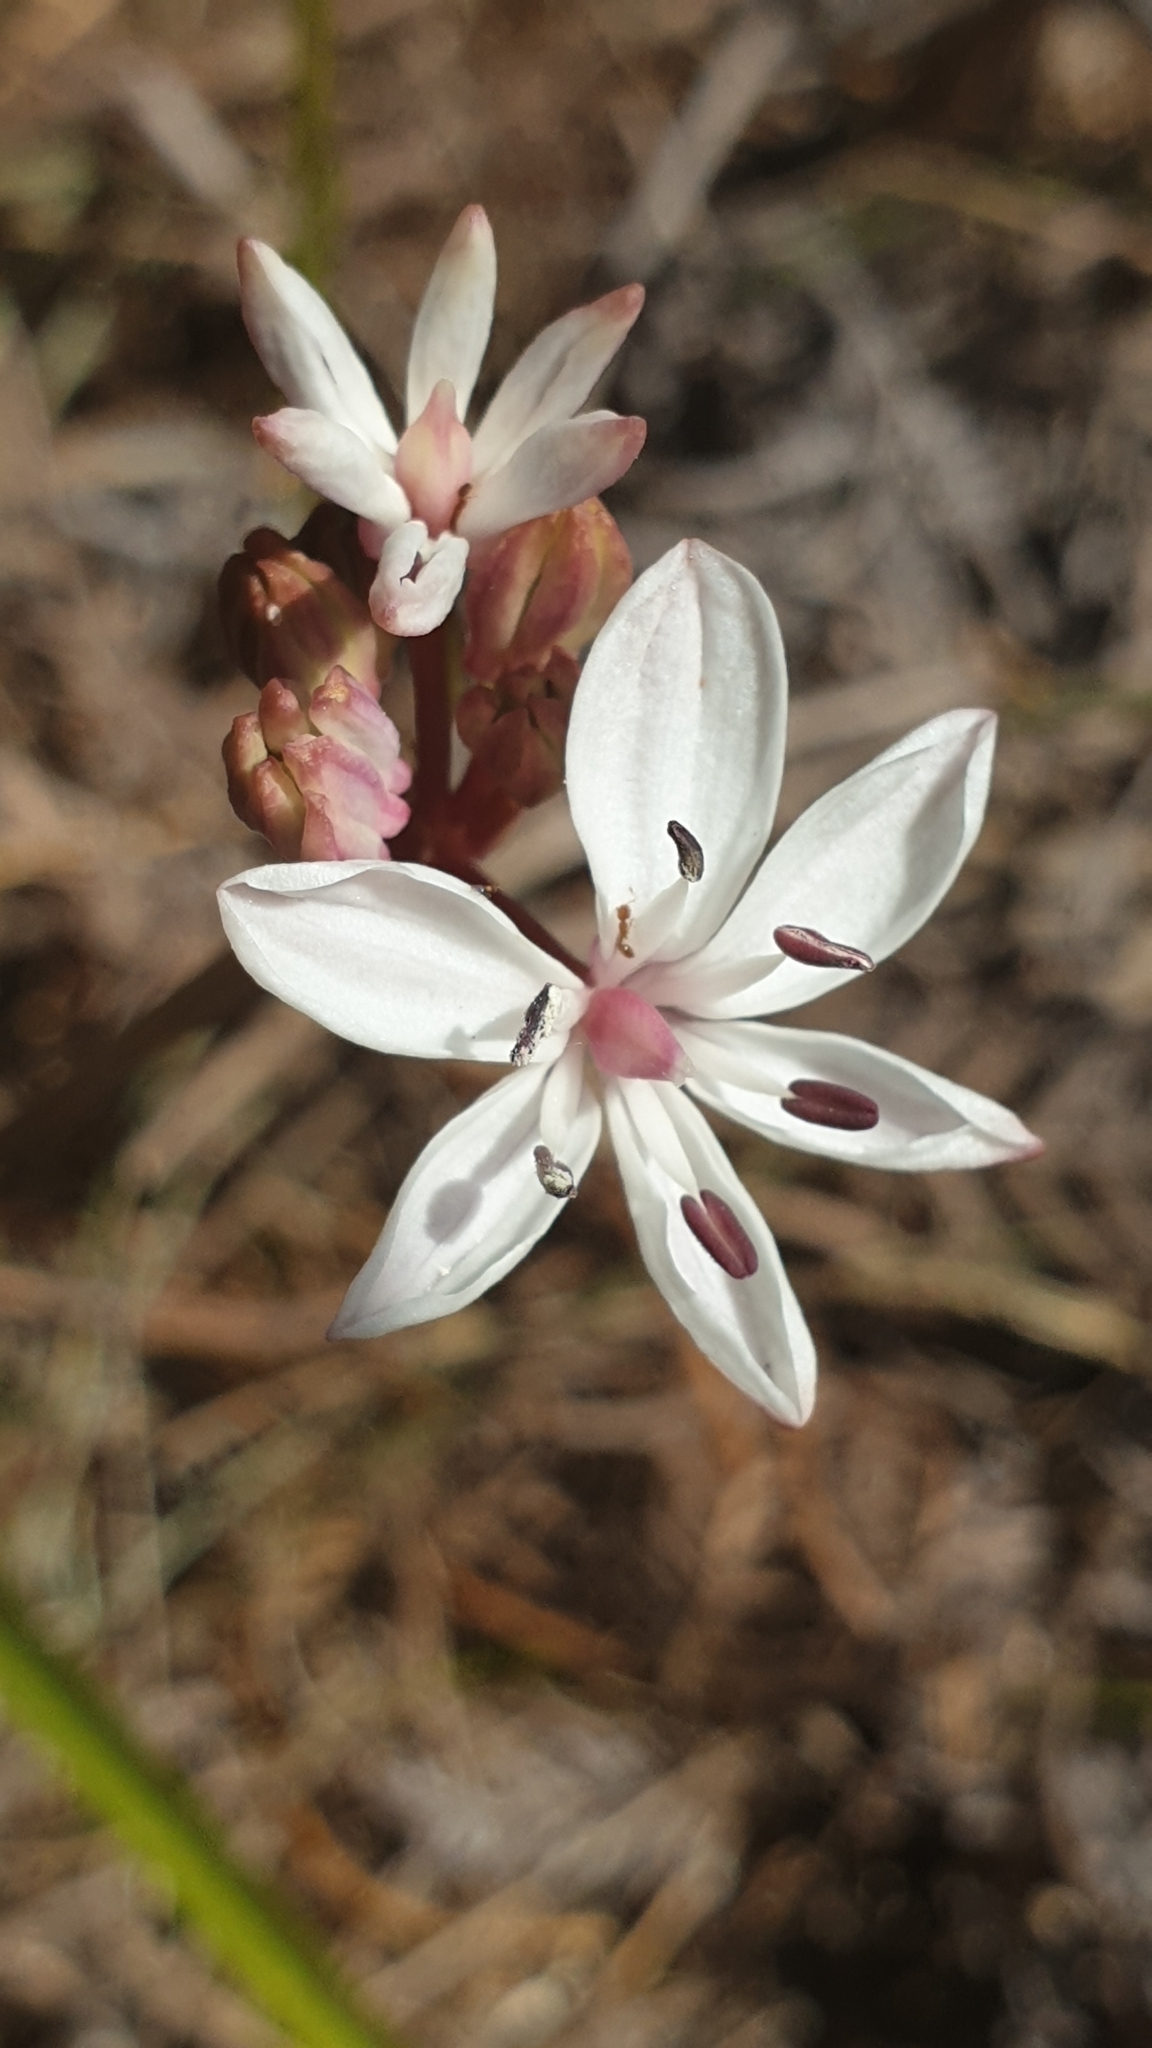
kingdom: Plantae
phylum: Tracheophyta
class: Liliopsida
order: Liliales
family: Colchicaceae
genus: Burchardia
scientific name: Burchardia umbellata
